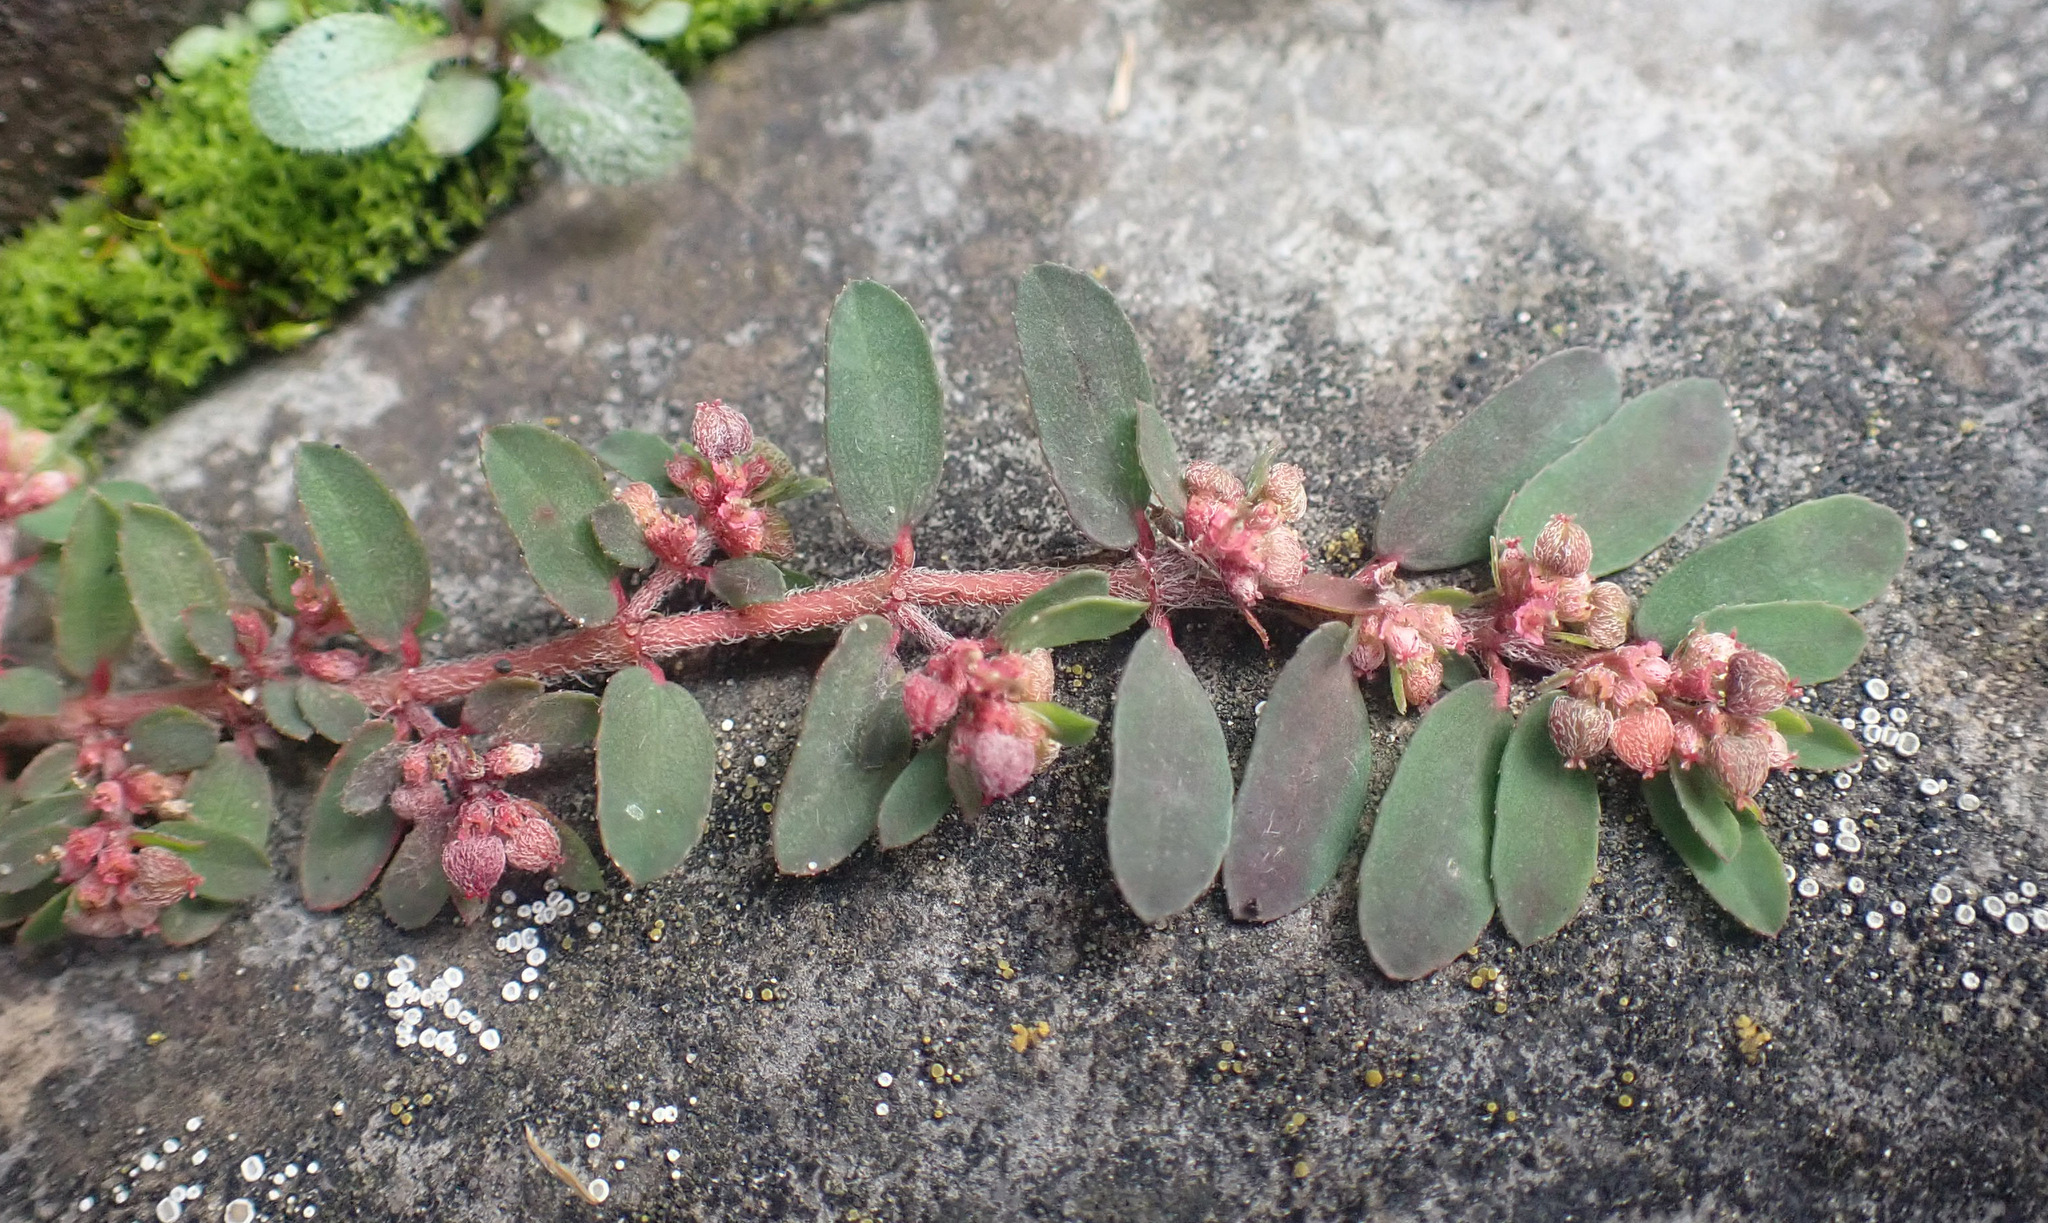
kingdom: Plantae
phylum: Tracheophyta
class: Magnoliopsida
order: Malpighiales
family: Euphorbiaceae
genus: Euphorbia
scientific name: Euphorbia maculata
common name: Spotted spurge
